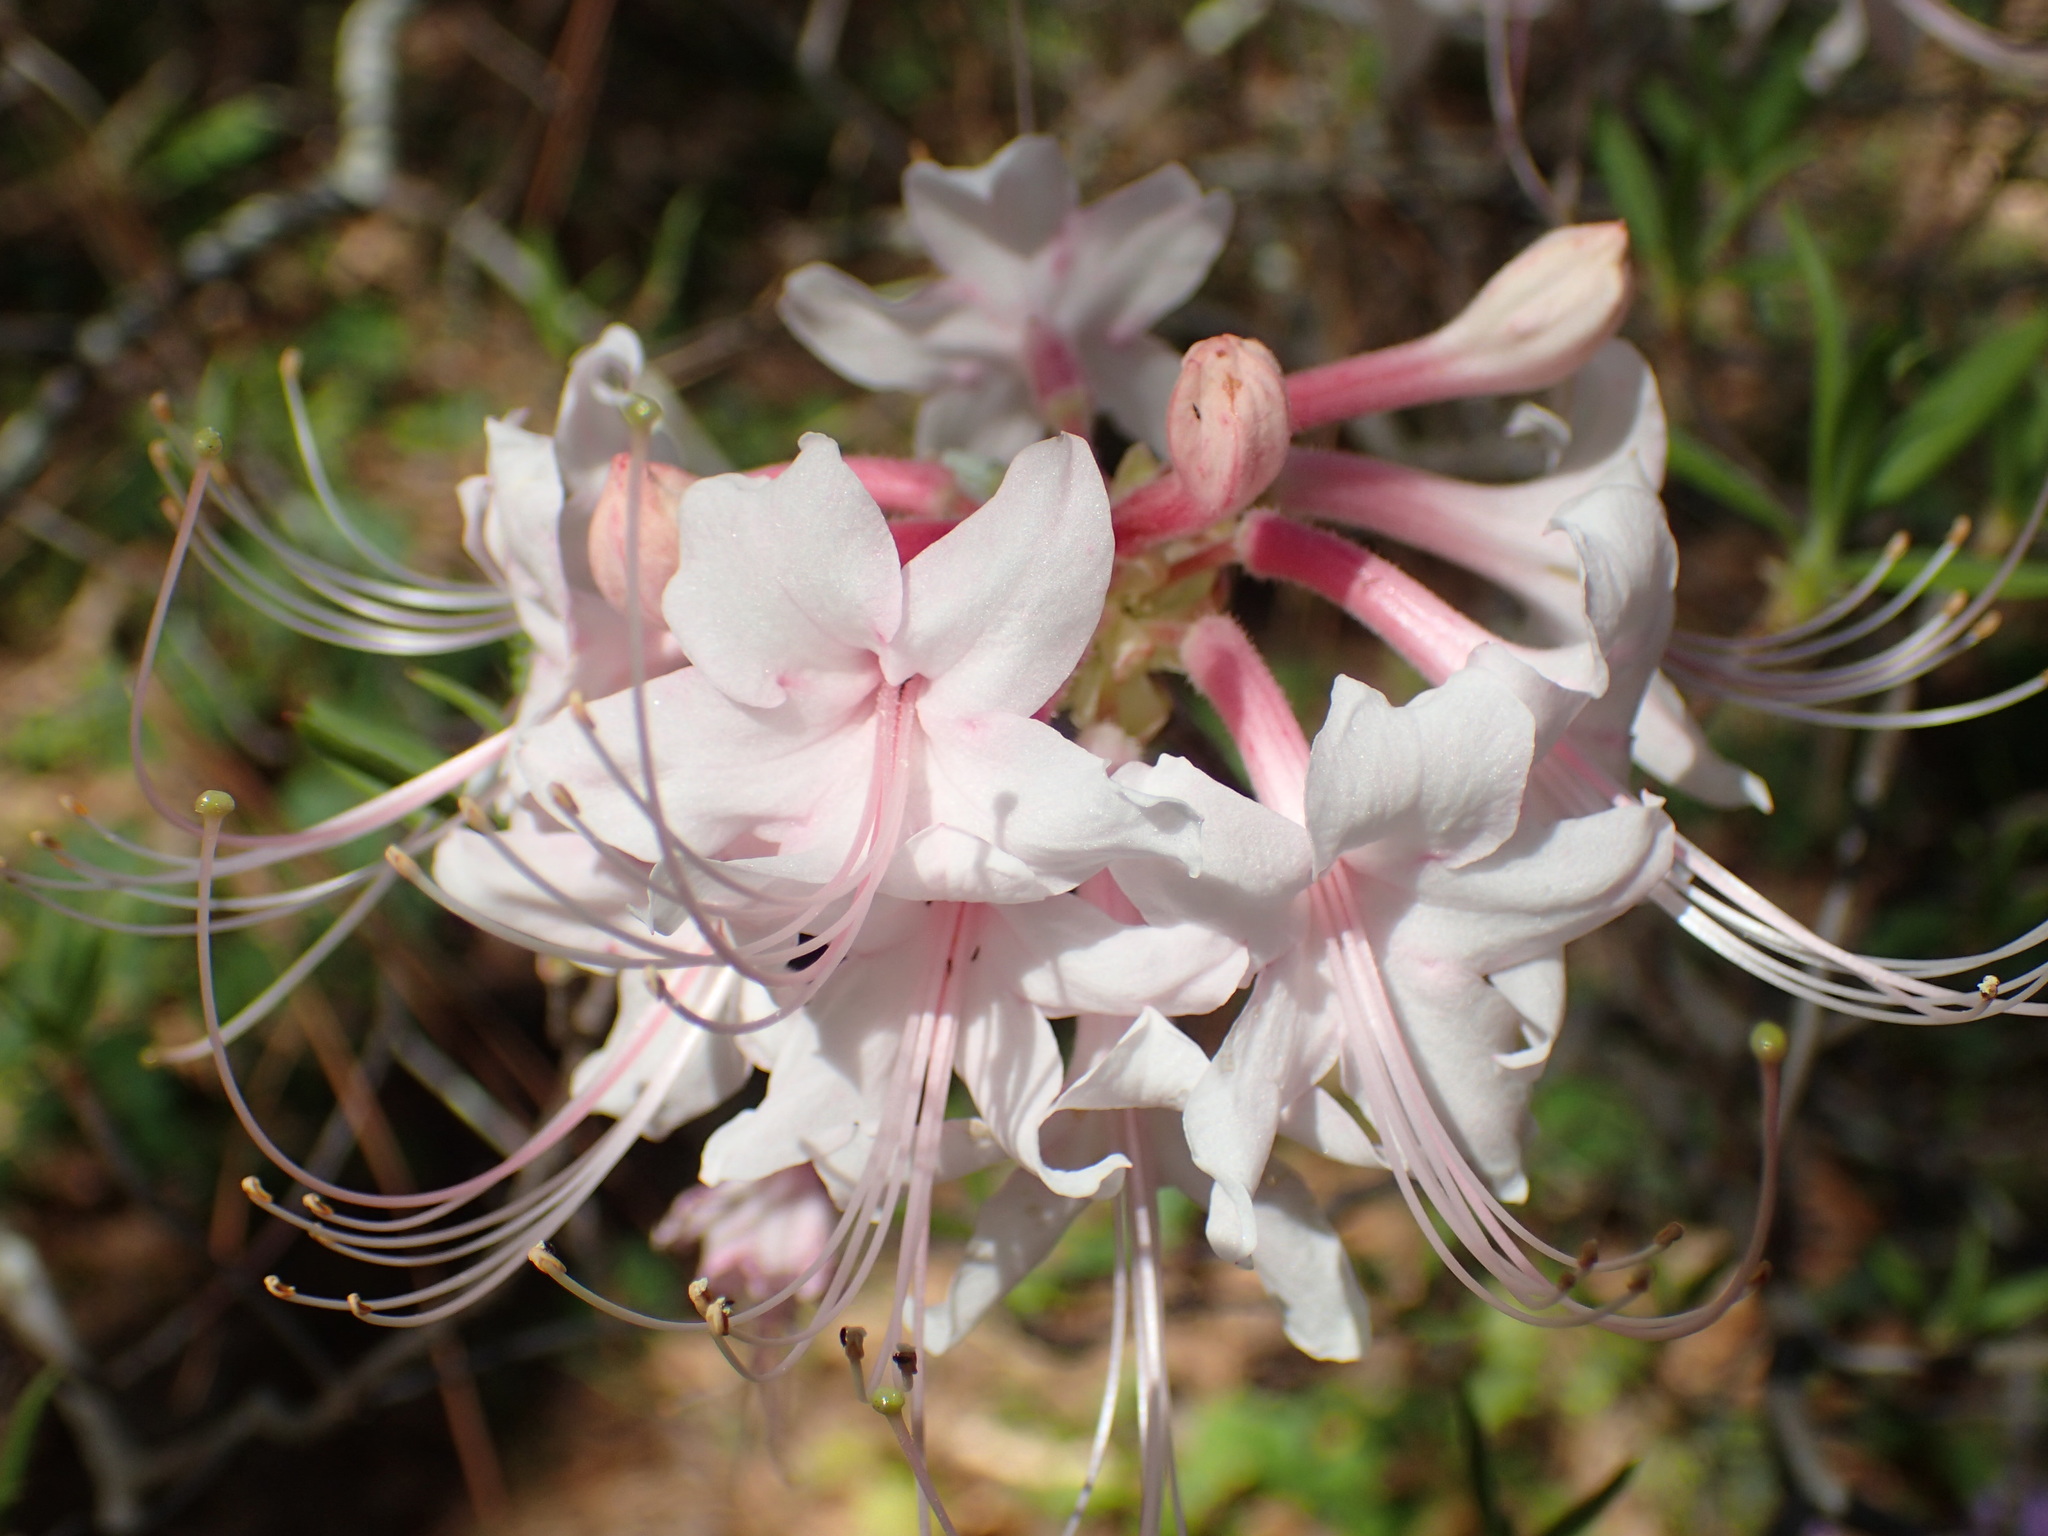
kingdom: Plantae
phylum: Tracheophyta
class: Magnoliopsida
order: Ranunculales
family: Papaveraceae
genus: Sanguinaria
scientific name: Sanguinaria canadensis
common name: Bloodroot
